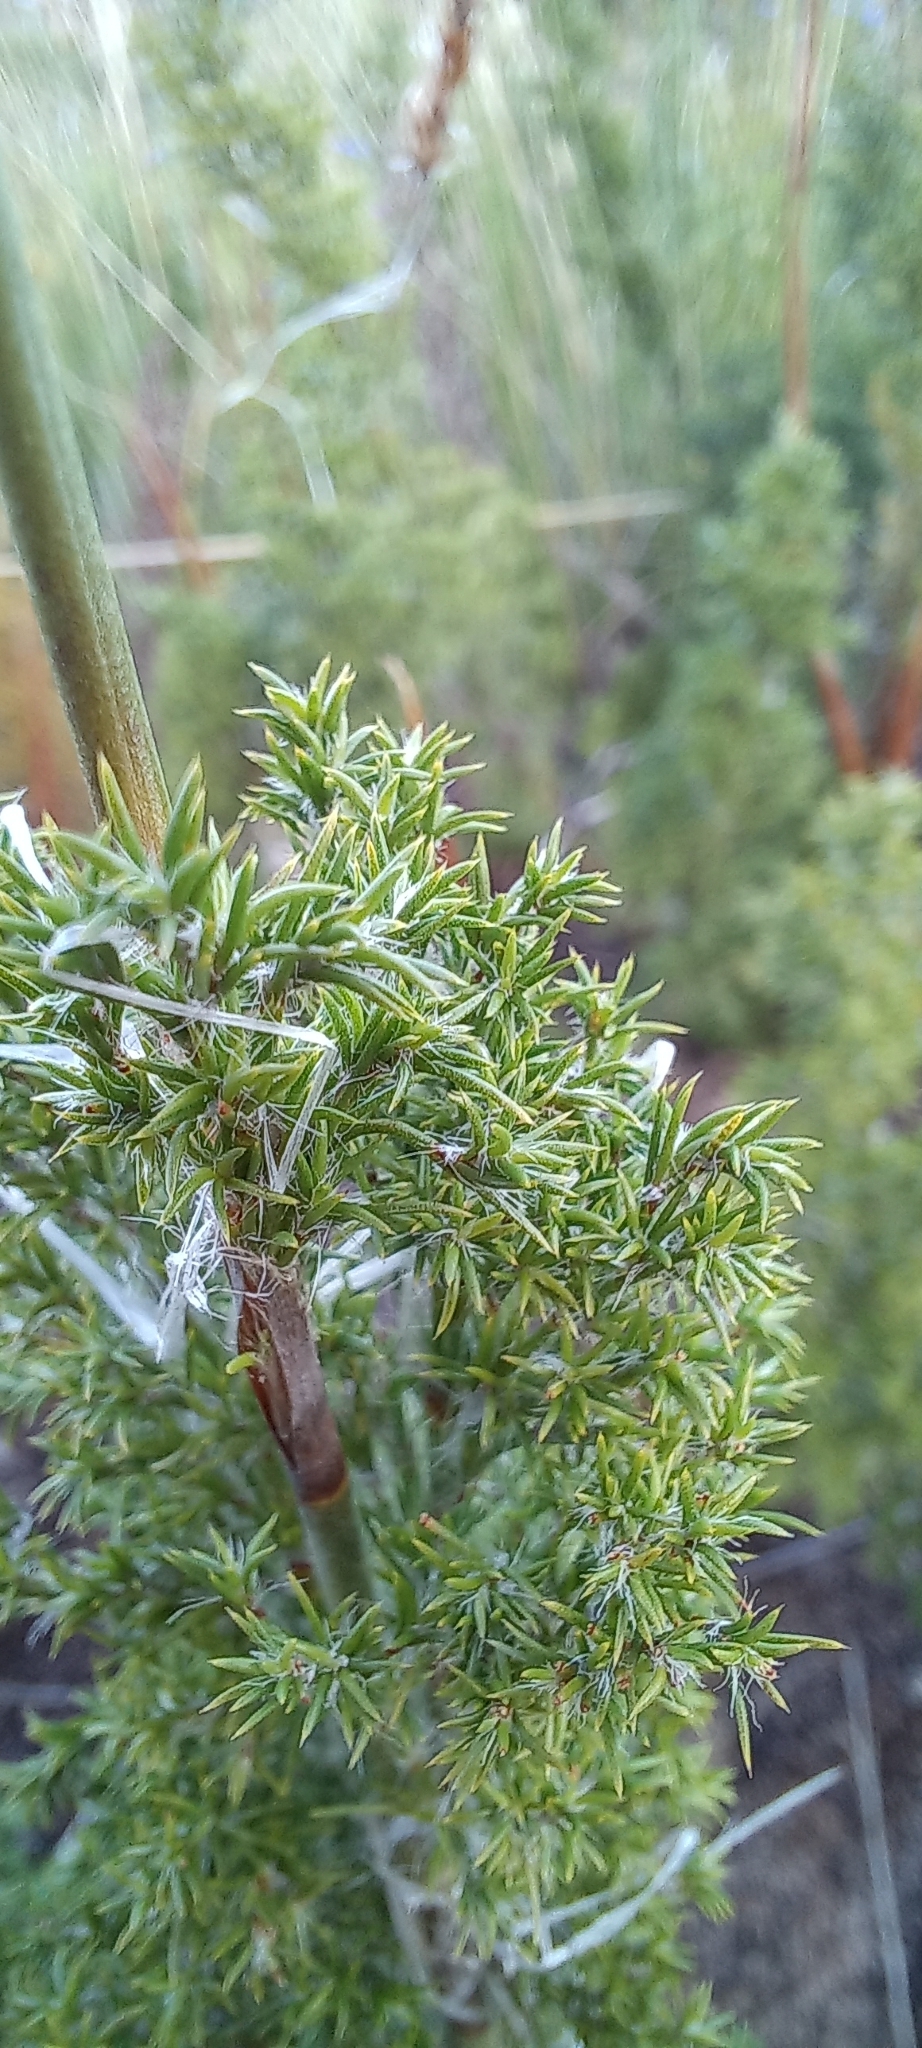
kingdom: Plantae
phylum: Tracheophyta
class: Liliopsida
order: Poales
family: Restionaceae
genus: Thamnochortus
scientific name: Thamnochortus fruticosus
